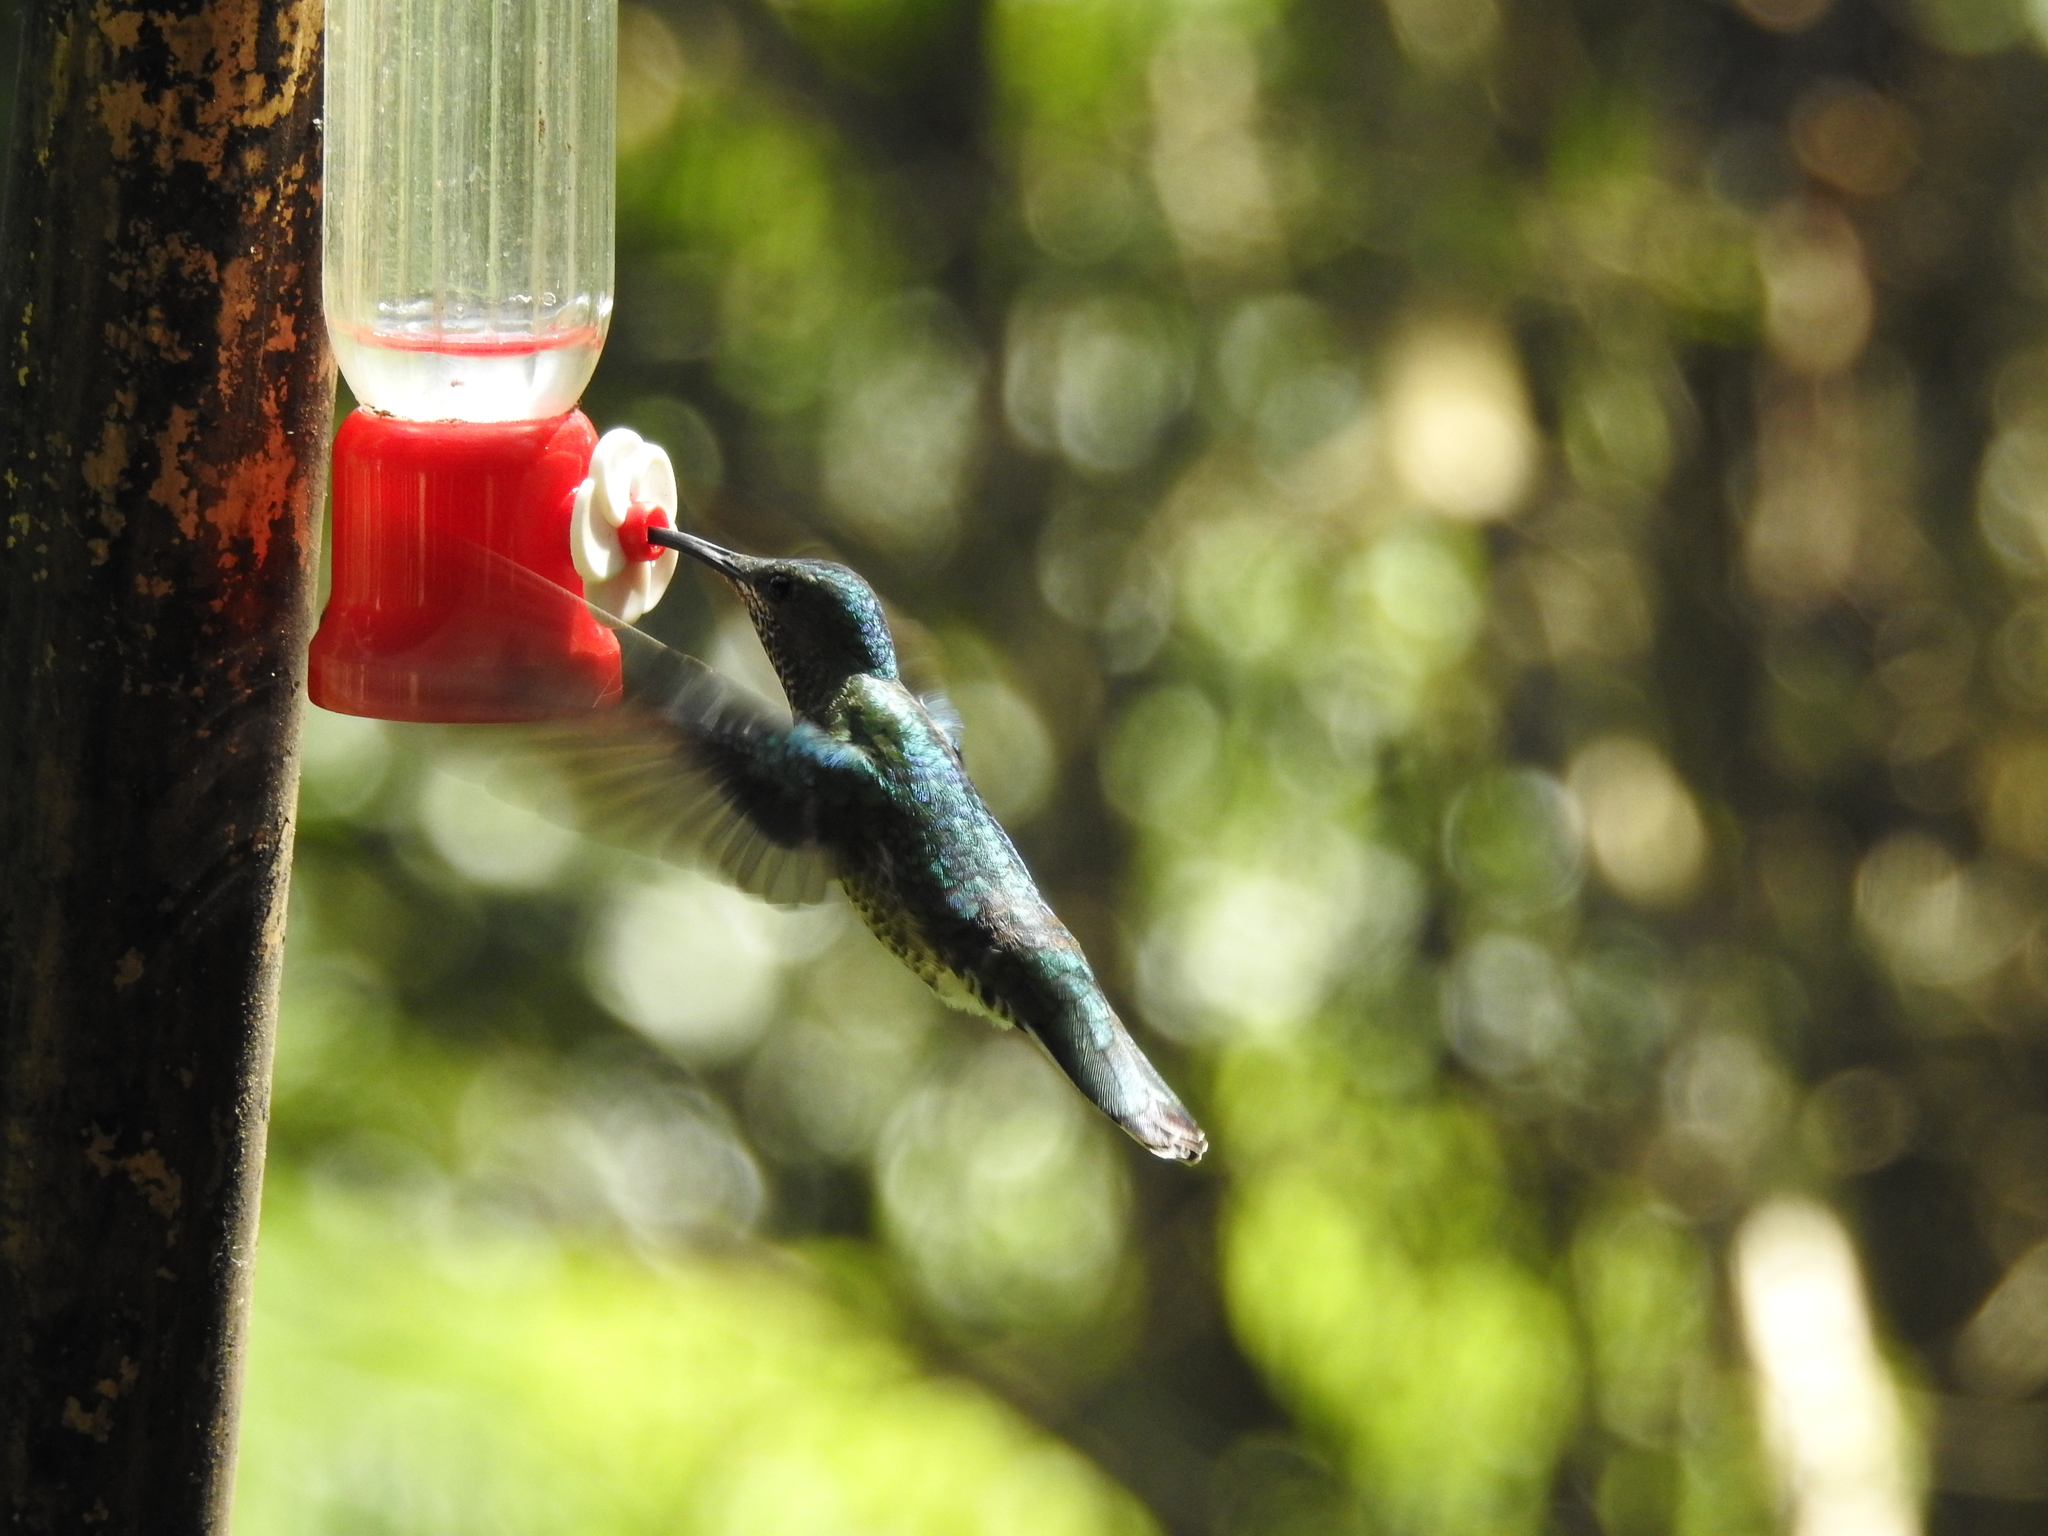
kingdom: Animalia
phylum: Chordata
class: Aves
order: Apodiformes
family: Trochilidae
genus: Florisuga
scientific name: Florisuga mellivora
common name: White-necked jacobin
